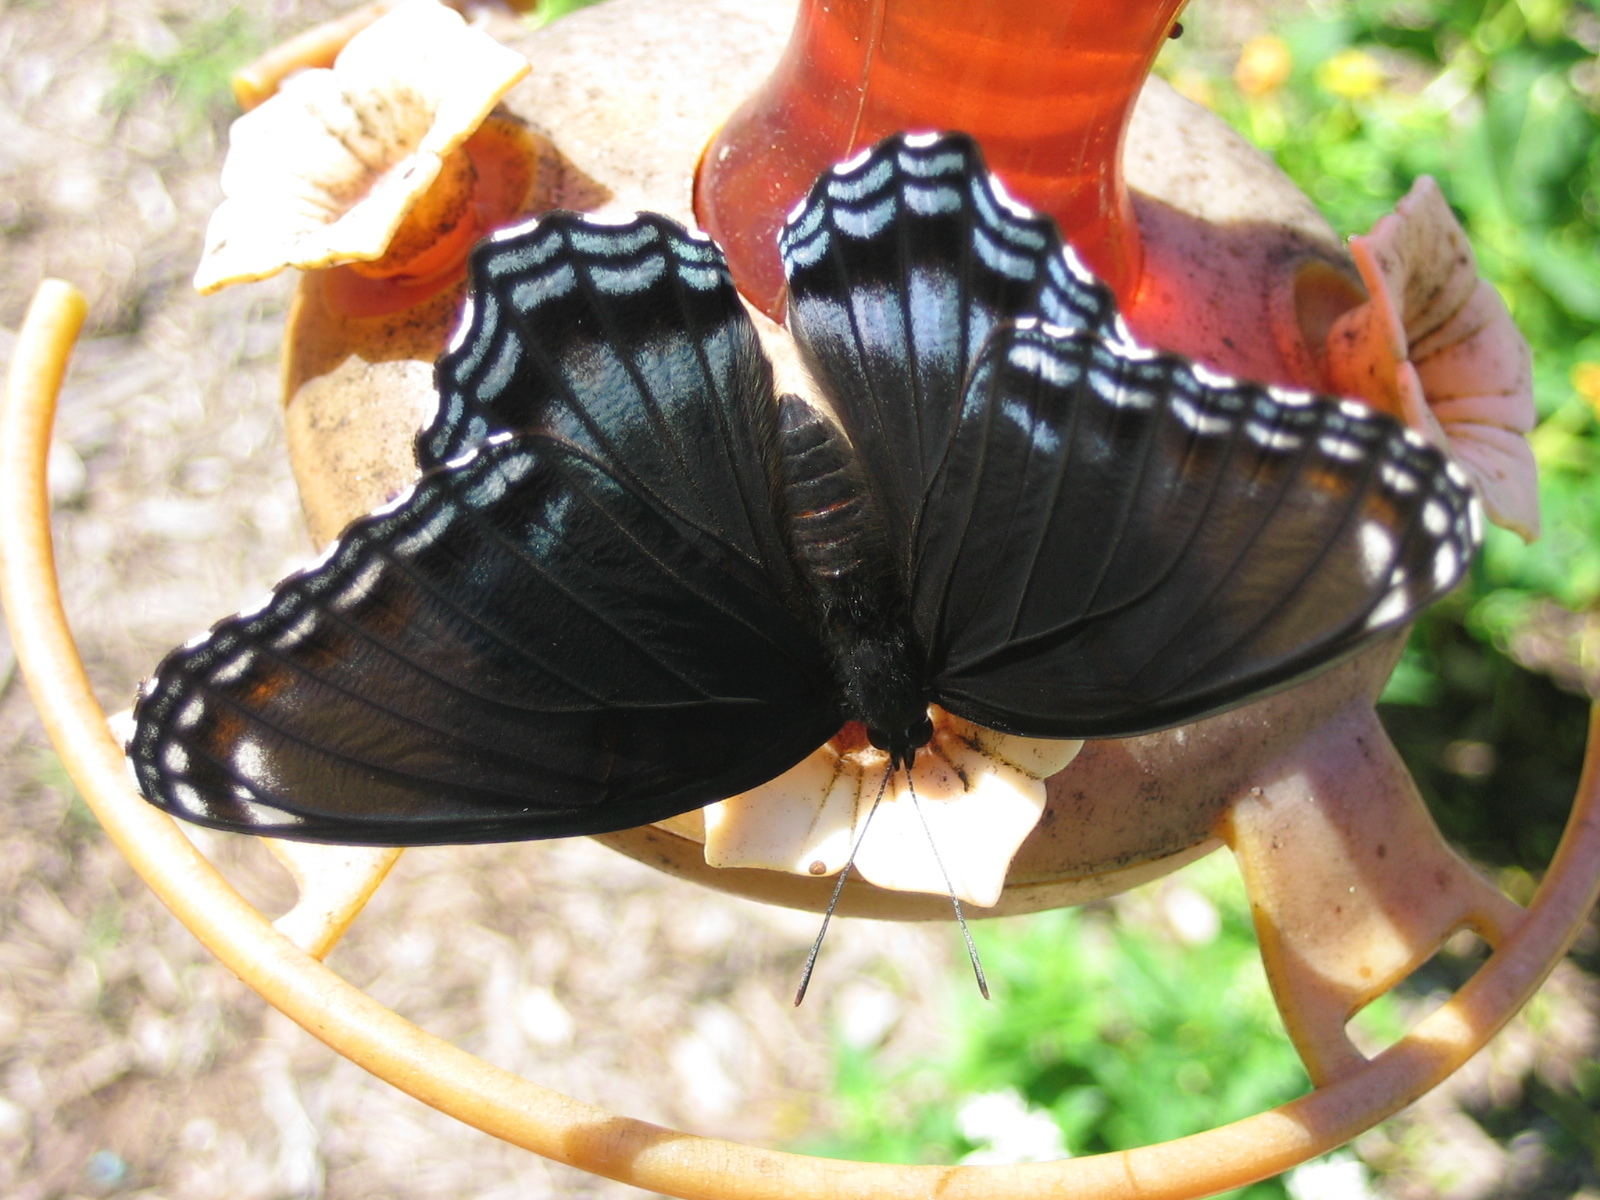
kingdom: Animalia
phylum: Arthropoda
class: Insecta
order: Lepidoptera
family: Nymphalidae
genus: Limenitis
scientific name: Limenitis astyanax
